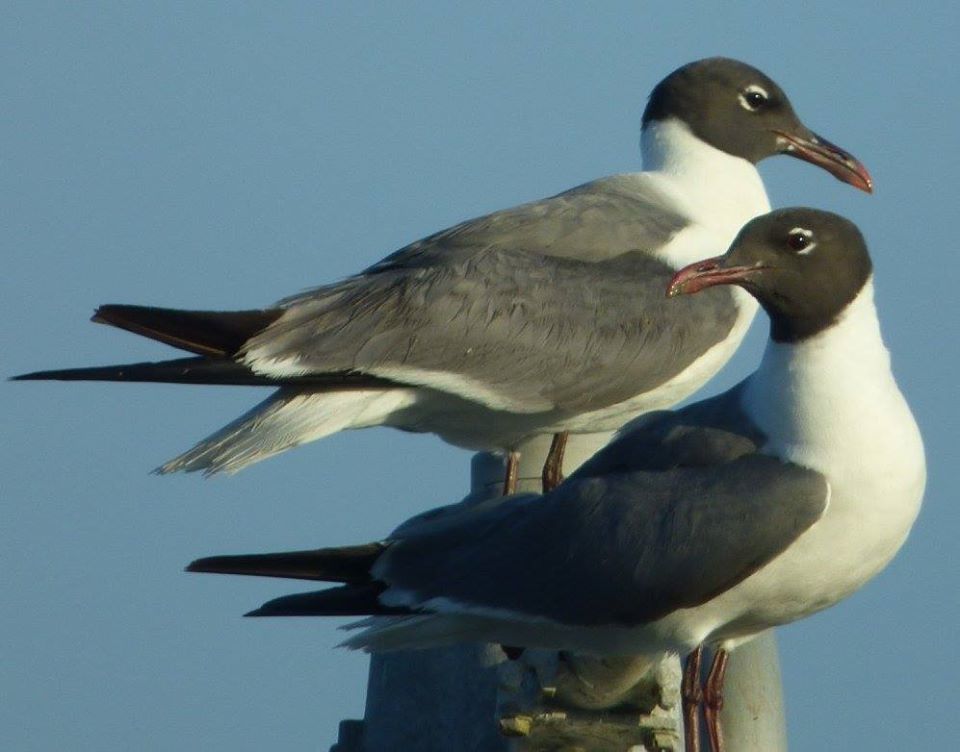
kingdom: Animalia
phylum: Chordata
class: Aves
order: Charadriiformes
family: Laridae
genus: Leucophaeus
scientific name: Leucophaeus atricilla
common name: Laughing gull
